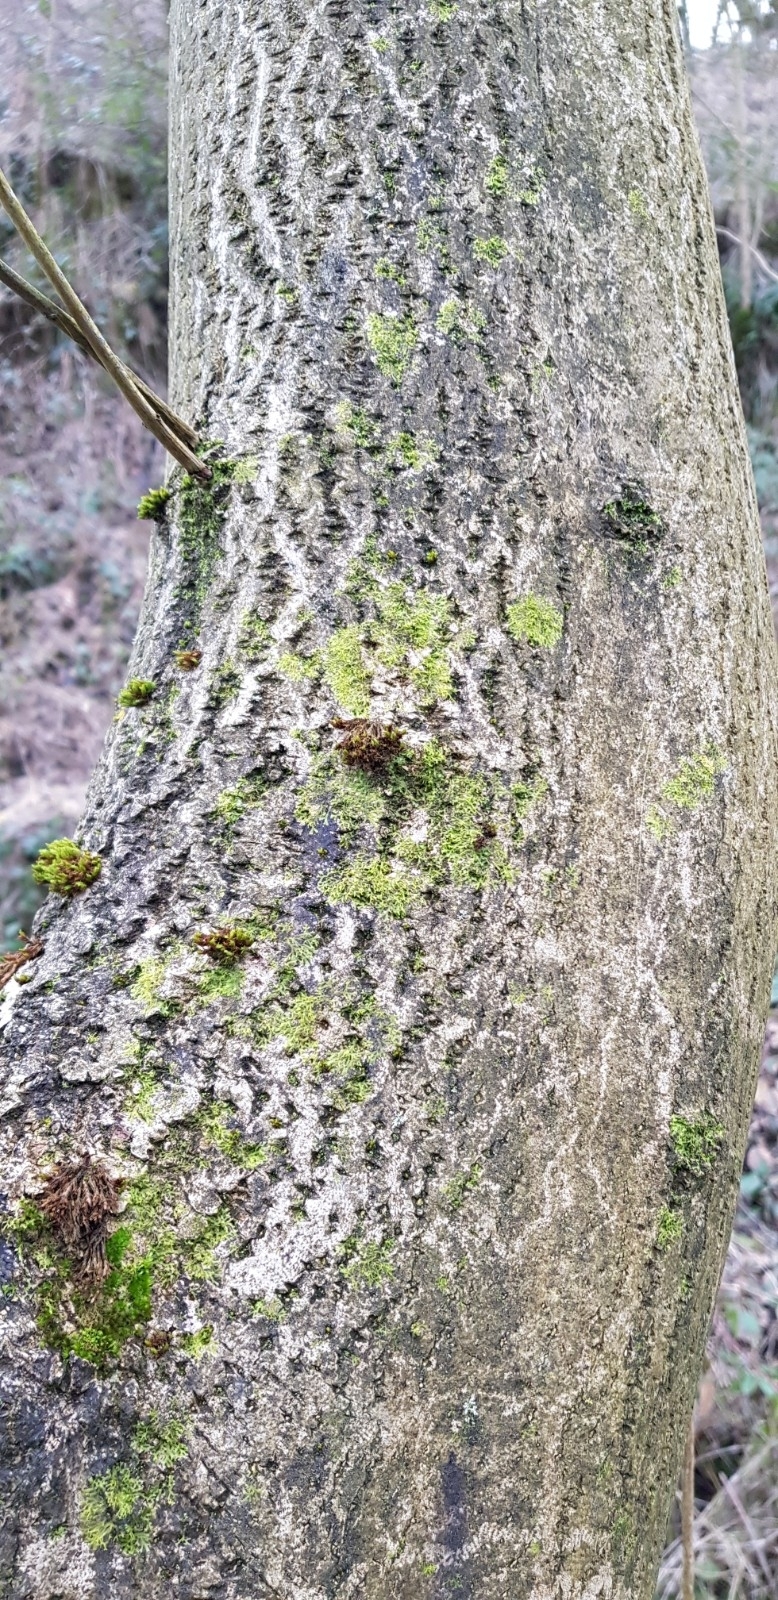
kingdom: Plantae
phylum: Marchantiophyta
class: Jungermanniopsida
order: Metzgeriales
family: Metzgeriaceae
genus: Metzgeria
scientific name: Metzgeria violacea
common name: Blueish veilwort
